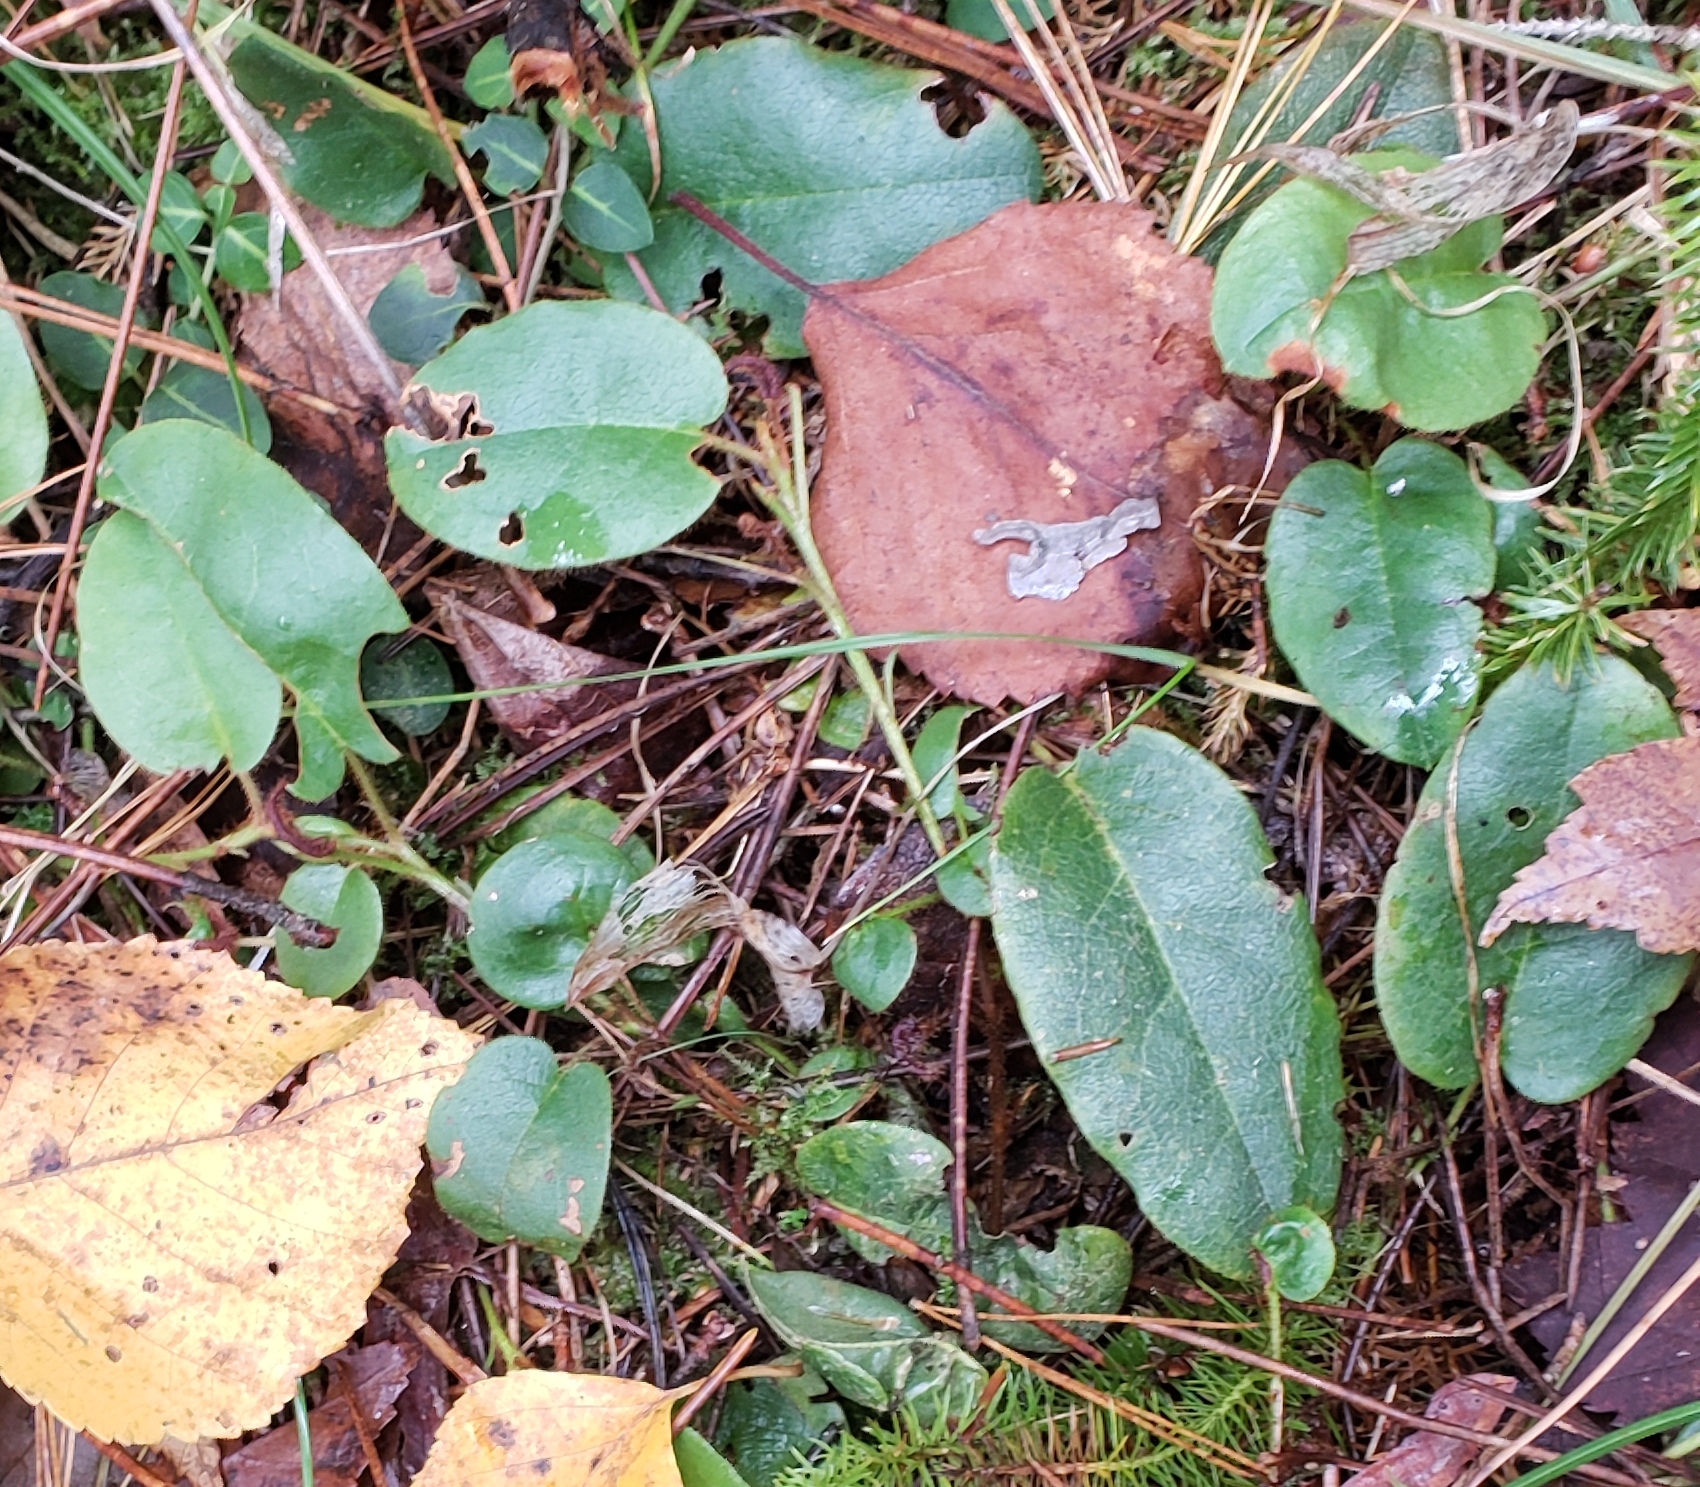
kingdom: Plantae
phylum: Tracheophyta
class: Magnoliopsida
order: Ericales
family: Ericaceae
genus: Epigaea
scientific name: Epigaea repens
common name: Gravelroot
